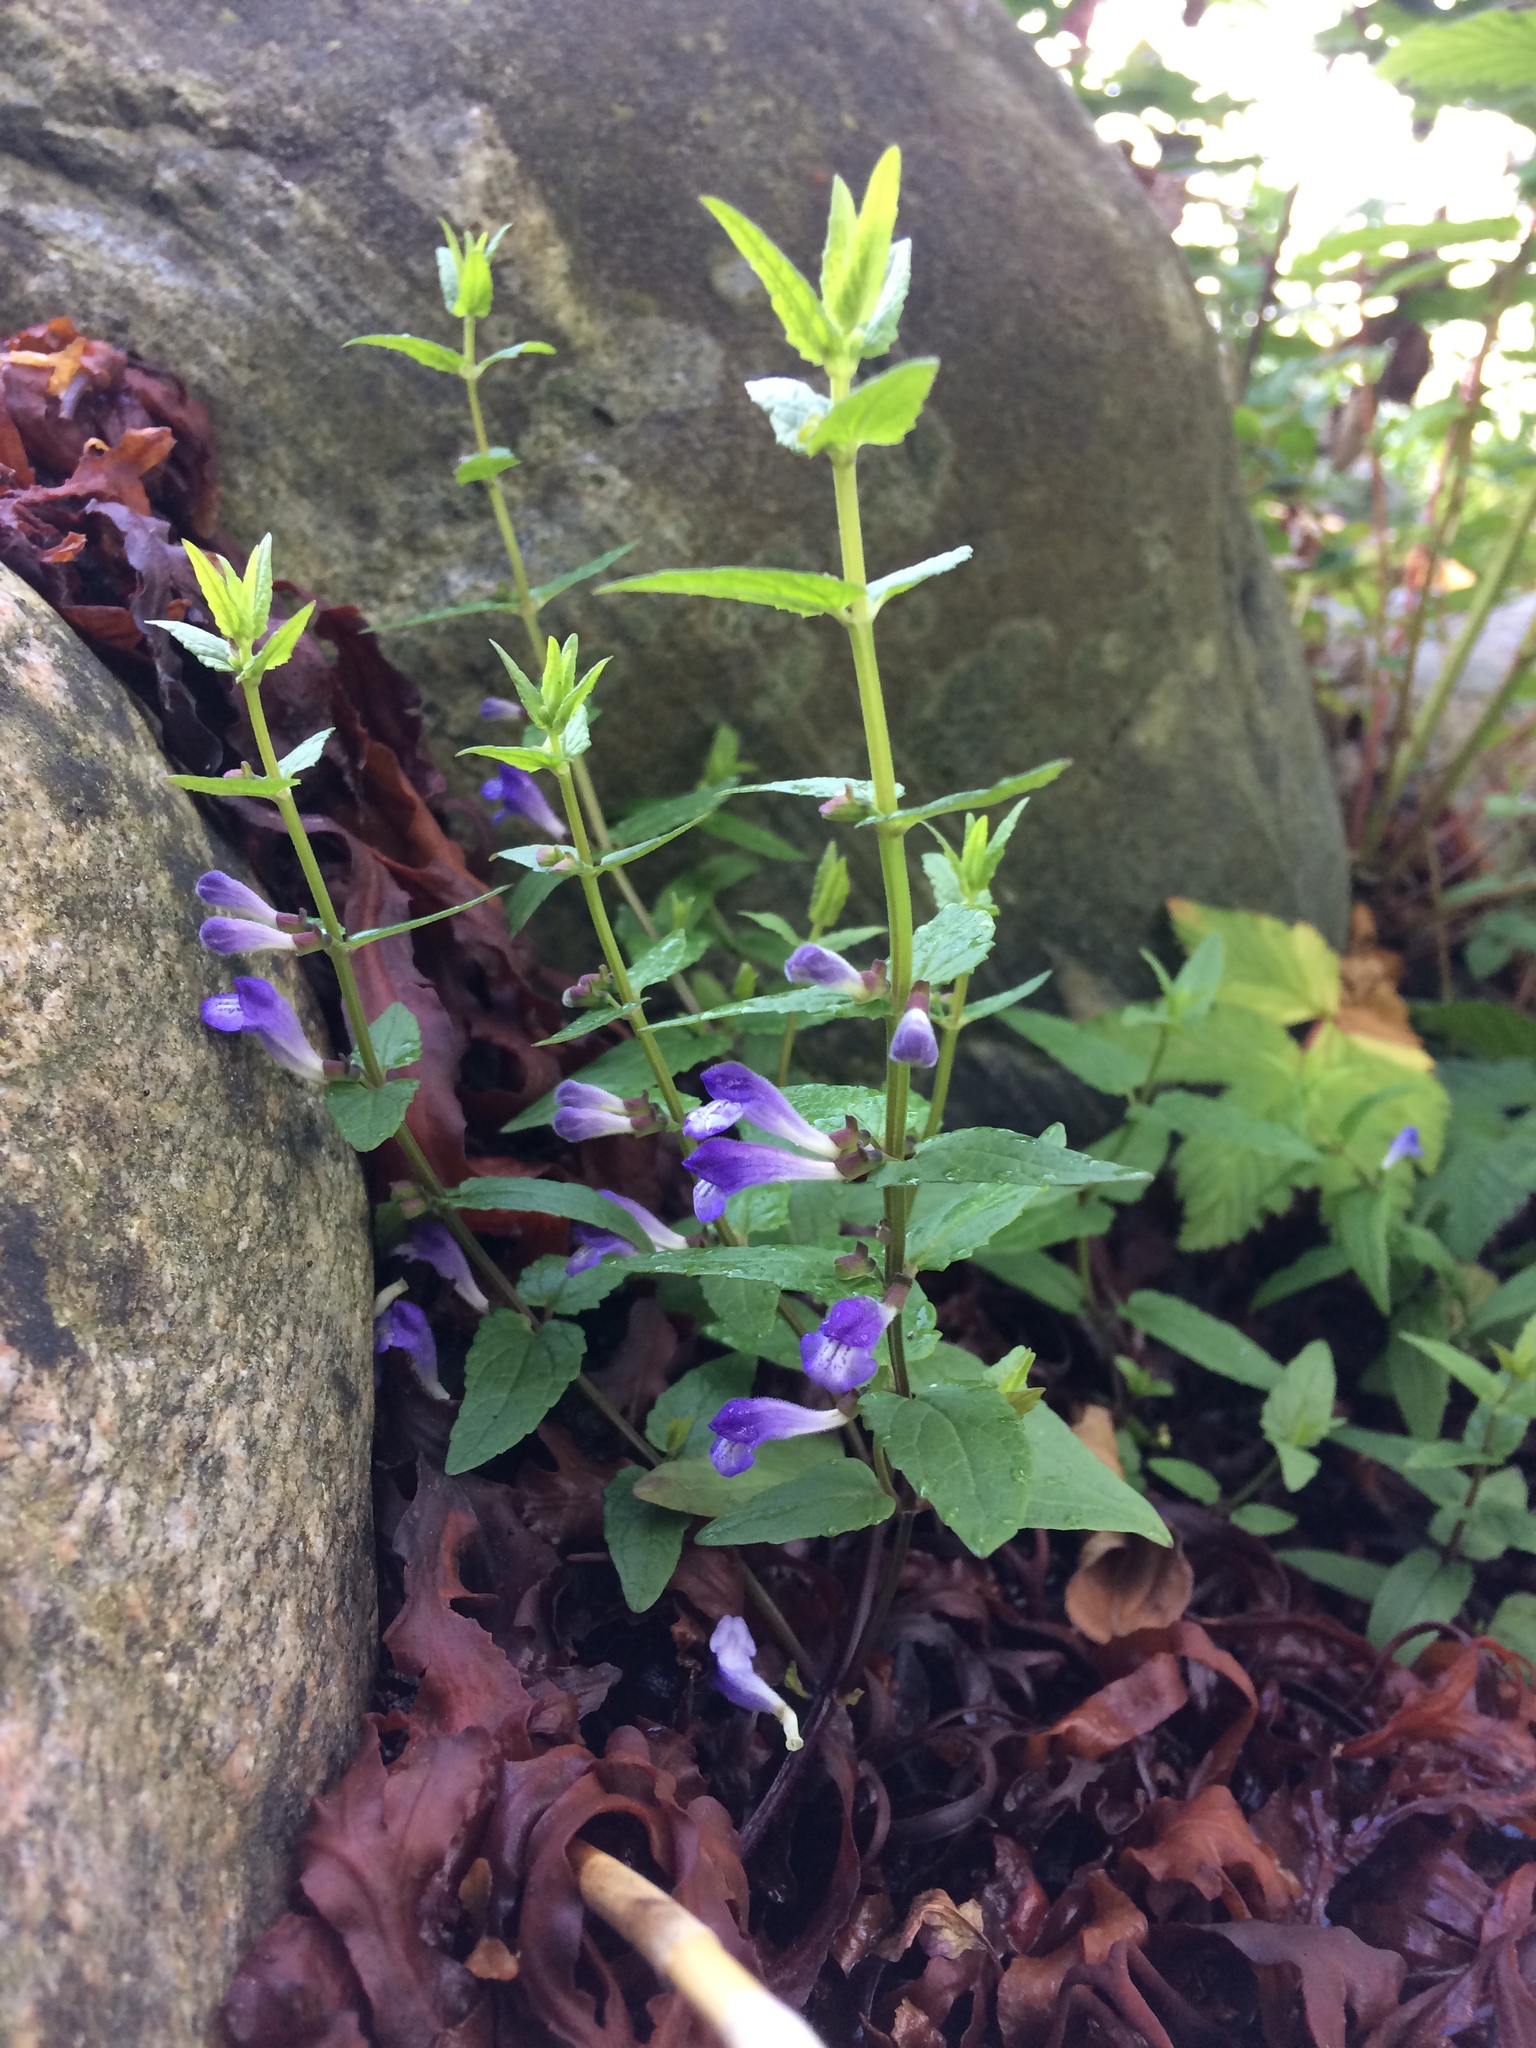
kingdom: Plantae
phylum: Tracheophyta
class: Magnoliopsida
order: Lamiales
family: Lamiaceae
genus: Scutellaria
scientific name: Scutellaria galericulata
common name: Skullcap
